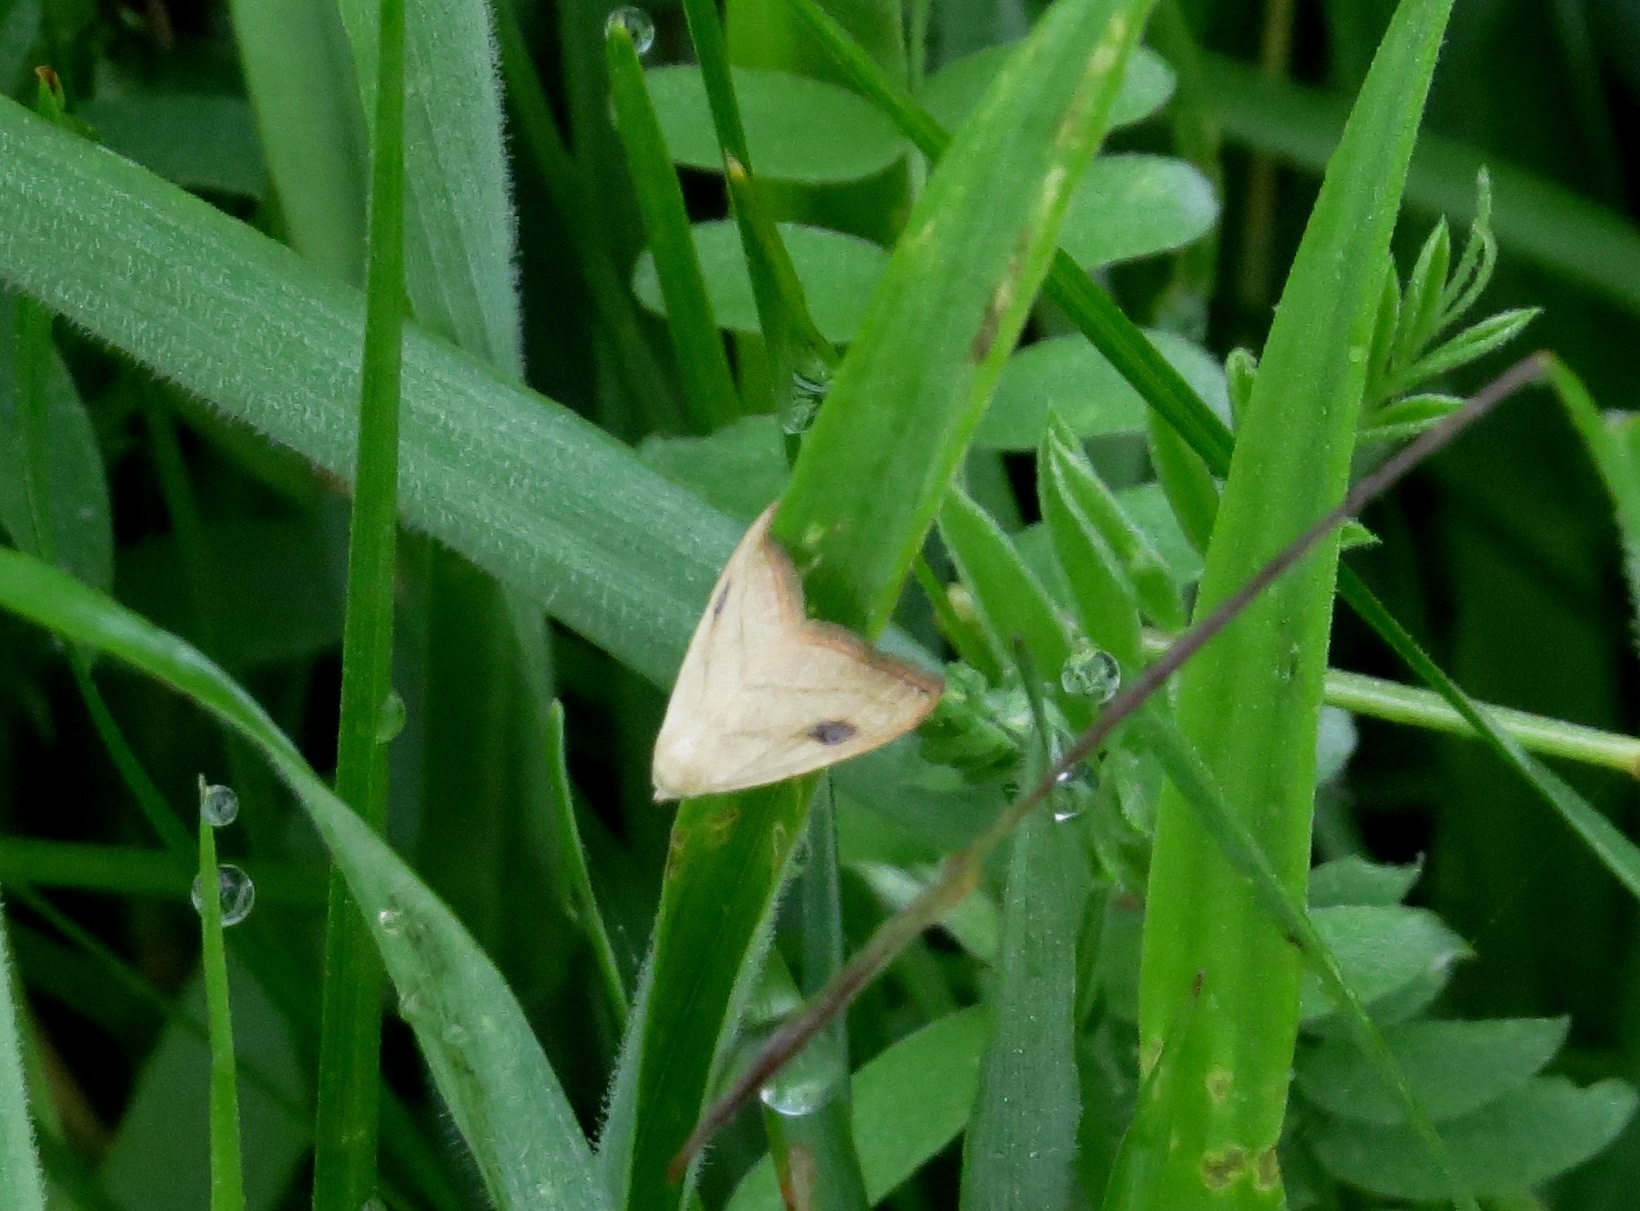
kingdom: Animalia
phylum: Arthropoda
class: Insecta
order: Lepidoptera
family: Erebidae
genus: Rivula
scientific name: Rivula propinqualis
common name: Spotted grass moth
